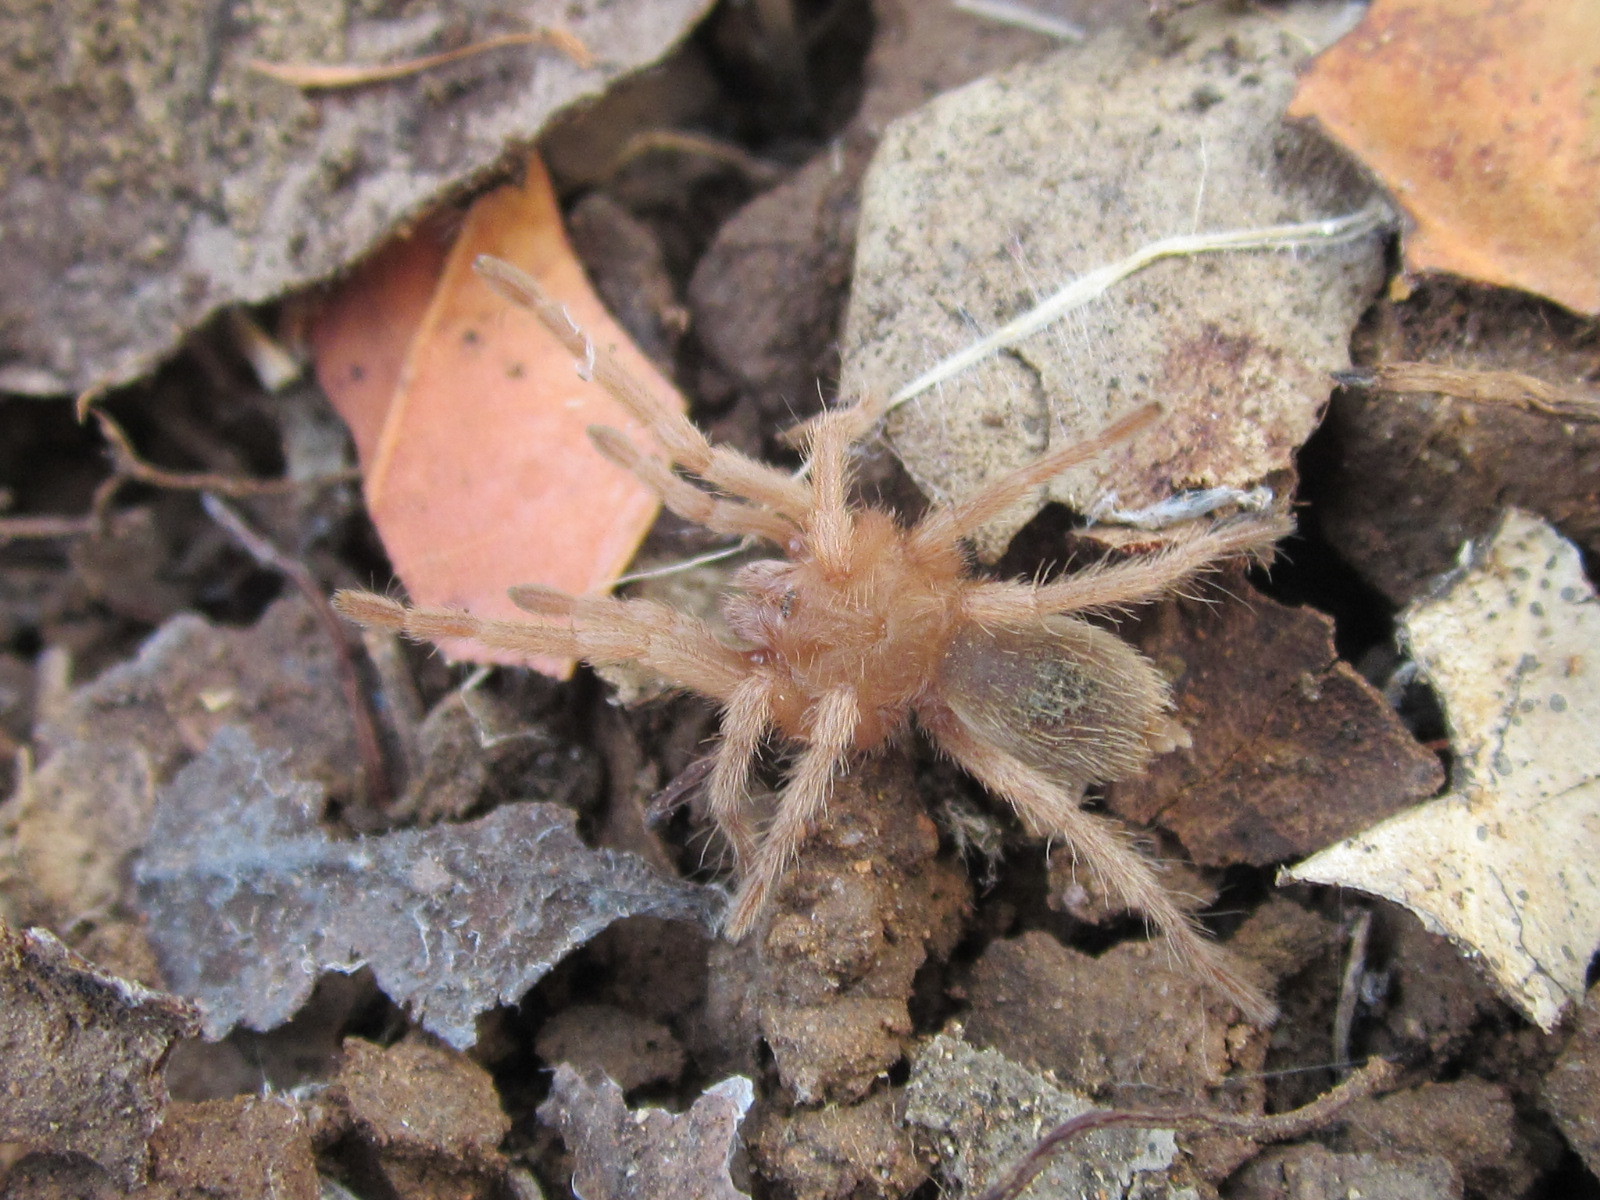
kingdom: Animalia
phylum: Arthropoda
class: Arachnida
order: Araneae
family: Theraphosidae
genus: Grammostola
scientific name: Grammostola rosea
